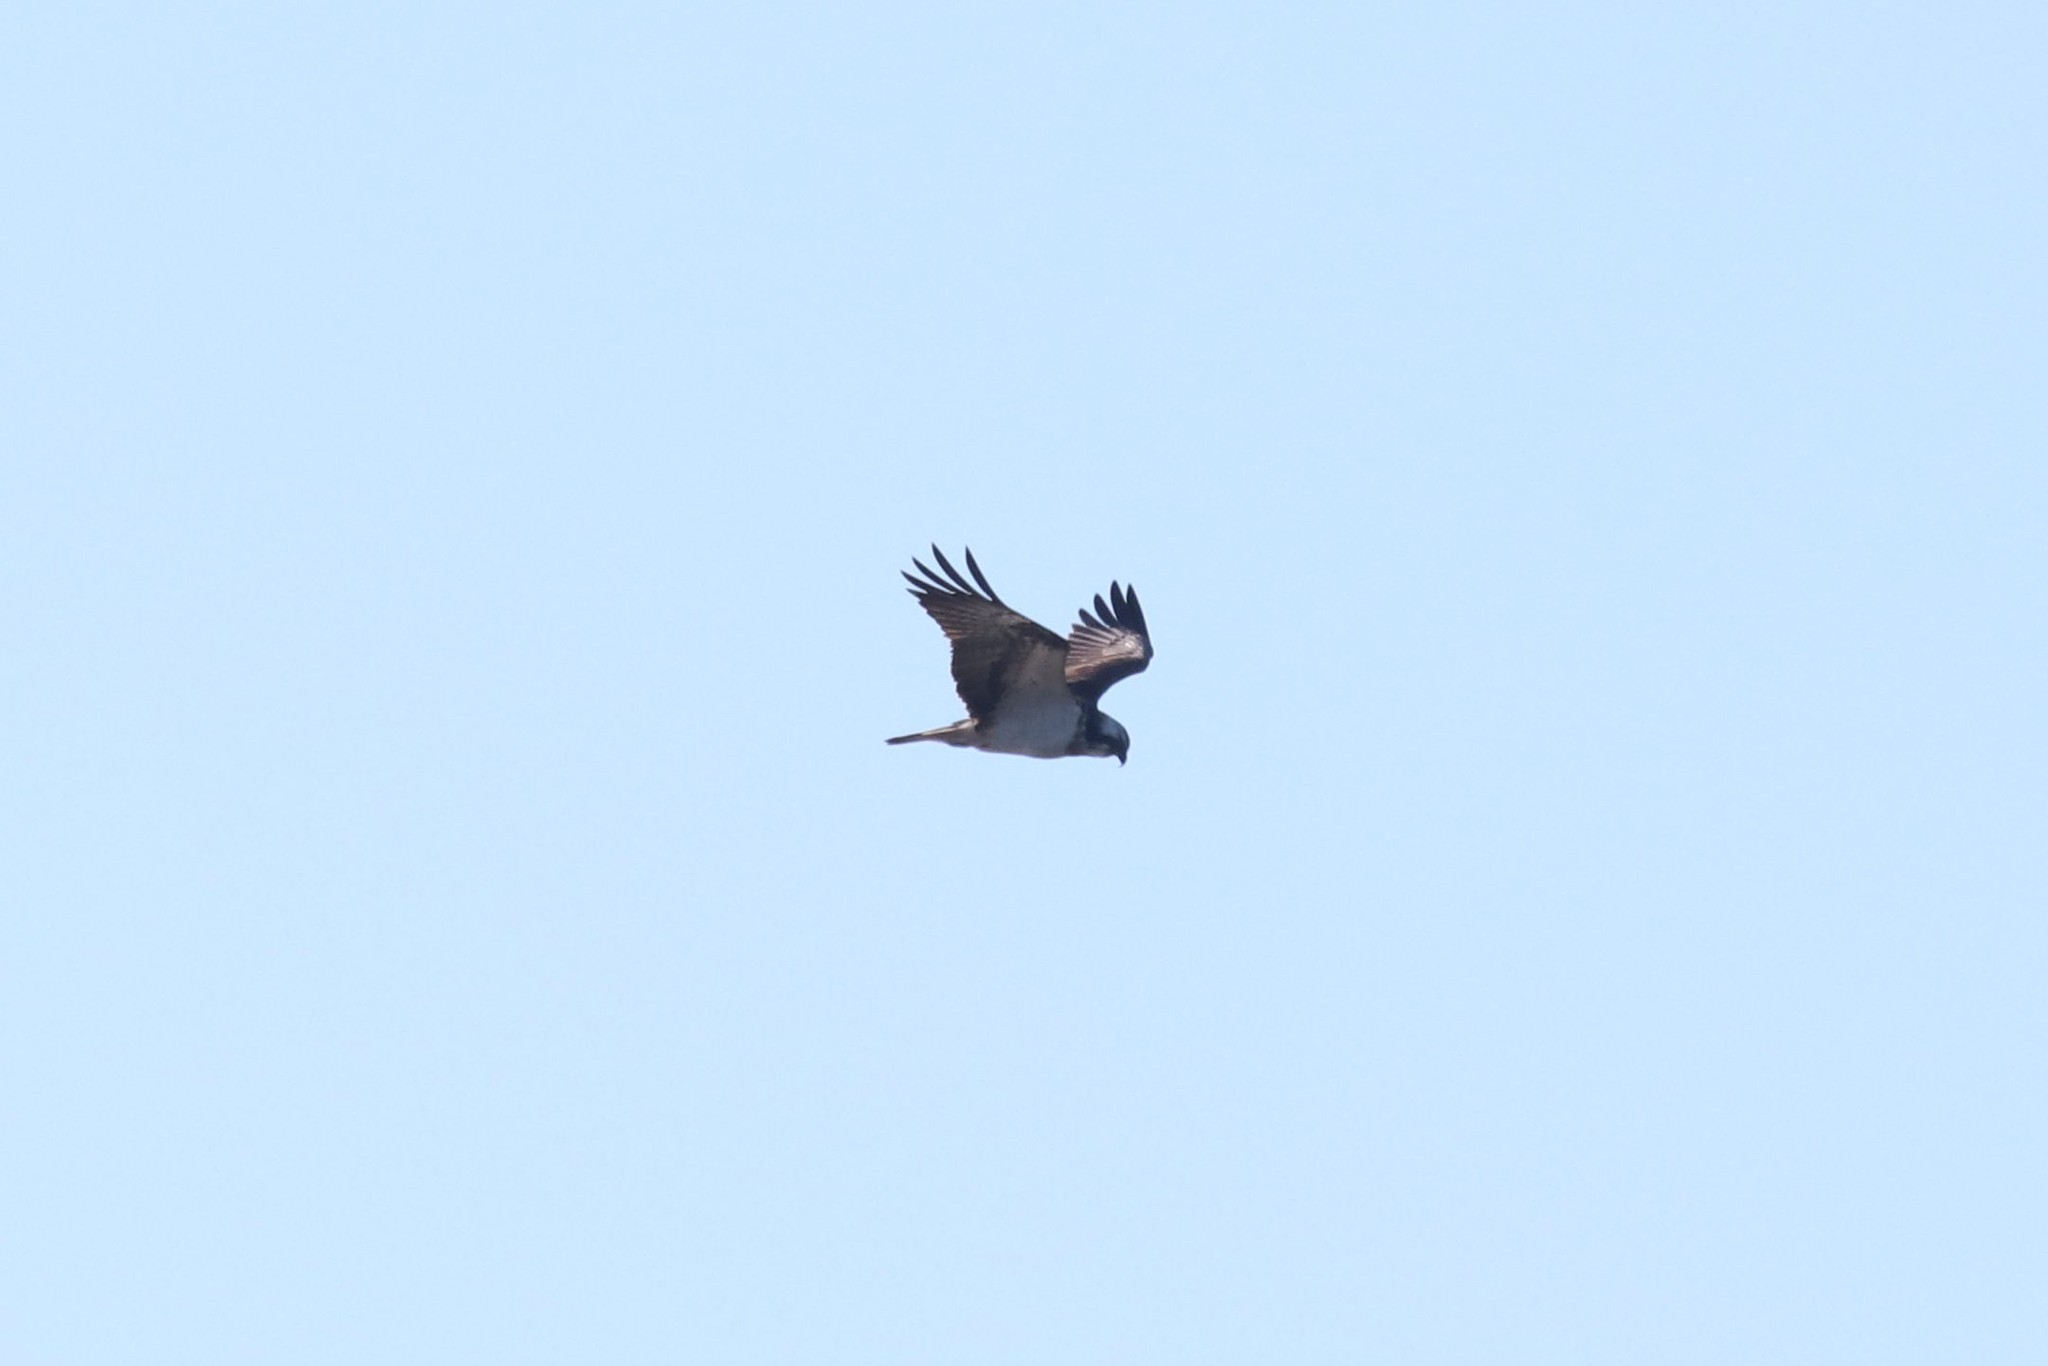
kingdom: Animalia
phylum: Chordata
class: Aves
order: Accipitriformes
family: Pandionidae
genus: Pandion
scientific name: Pandion haliaetus
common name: Osprey
